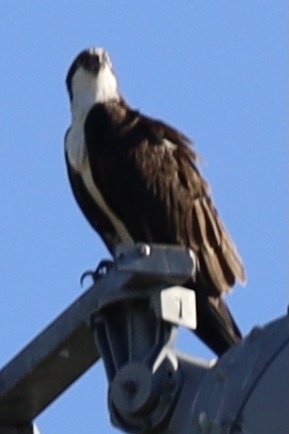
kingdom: Animalia
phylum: Chordata
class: Aves
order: Accipitriformes
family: Pandionidae
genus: Pandion
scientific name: Pandion haliaetus
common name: Osprey
